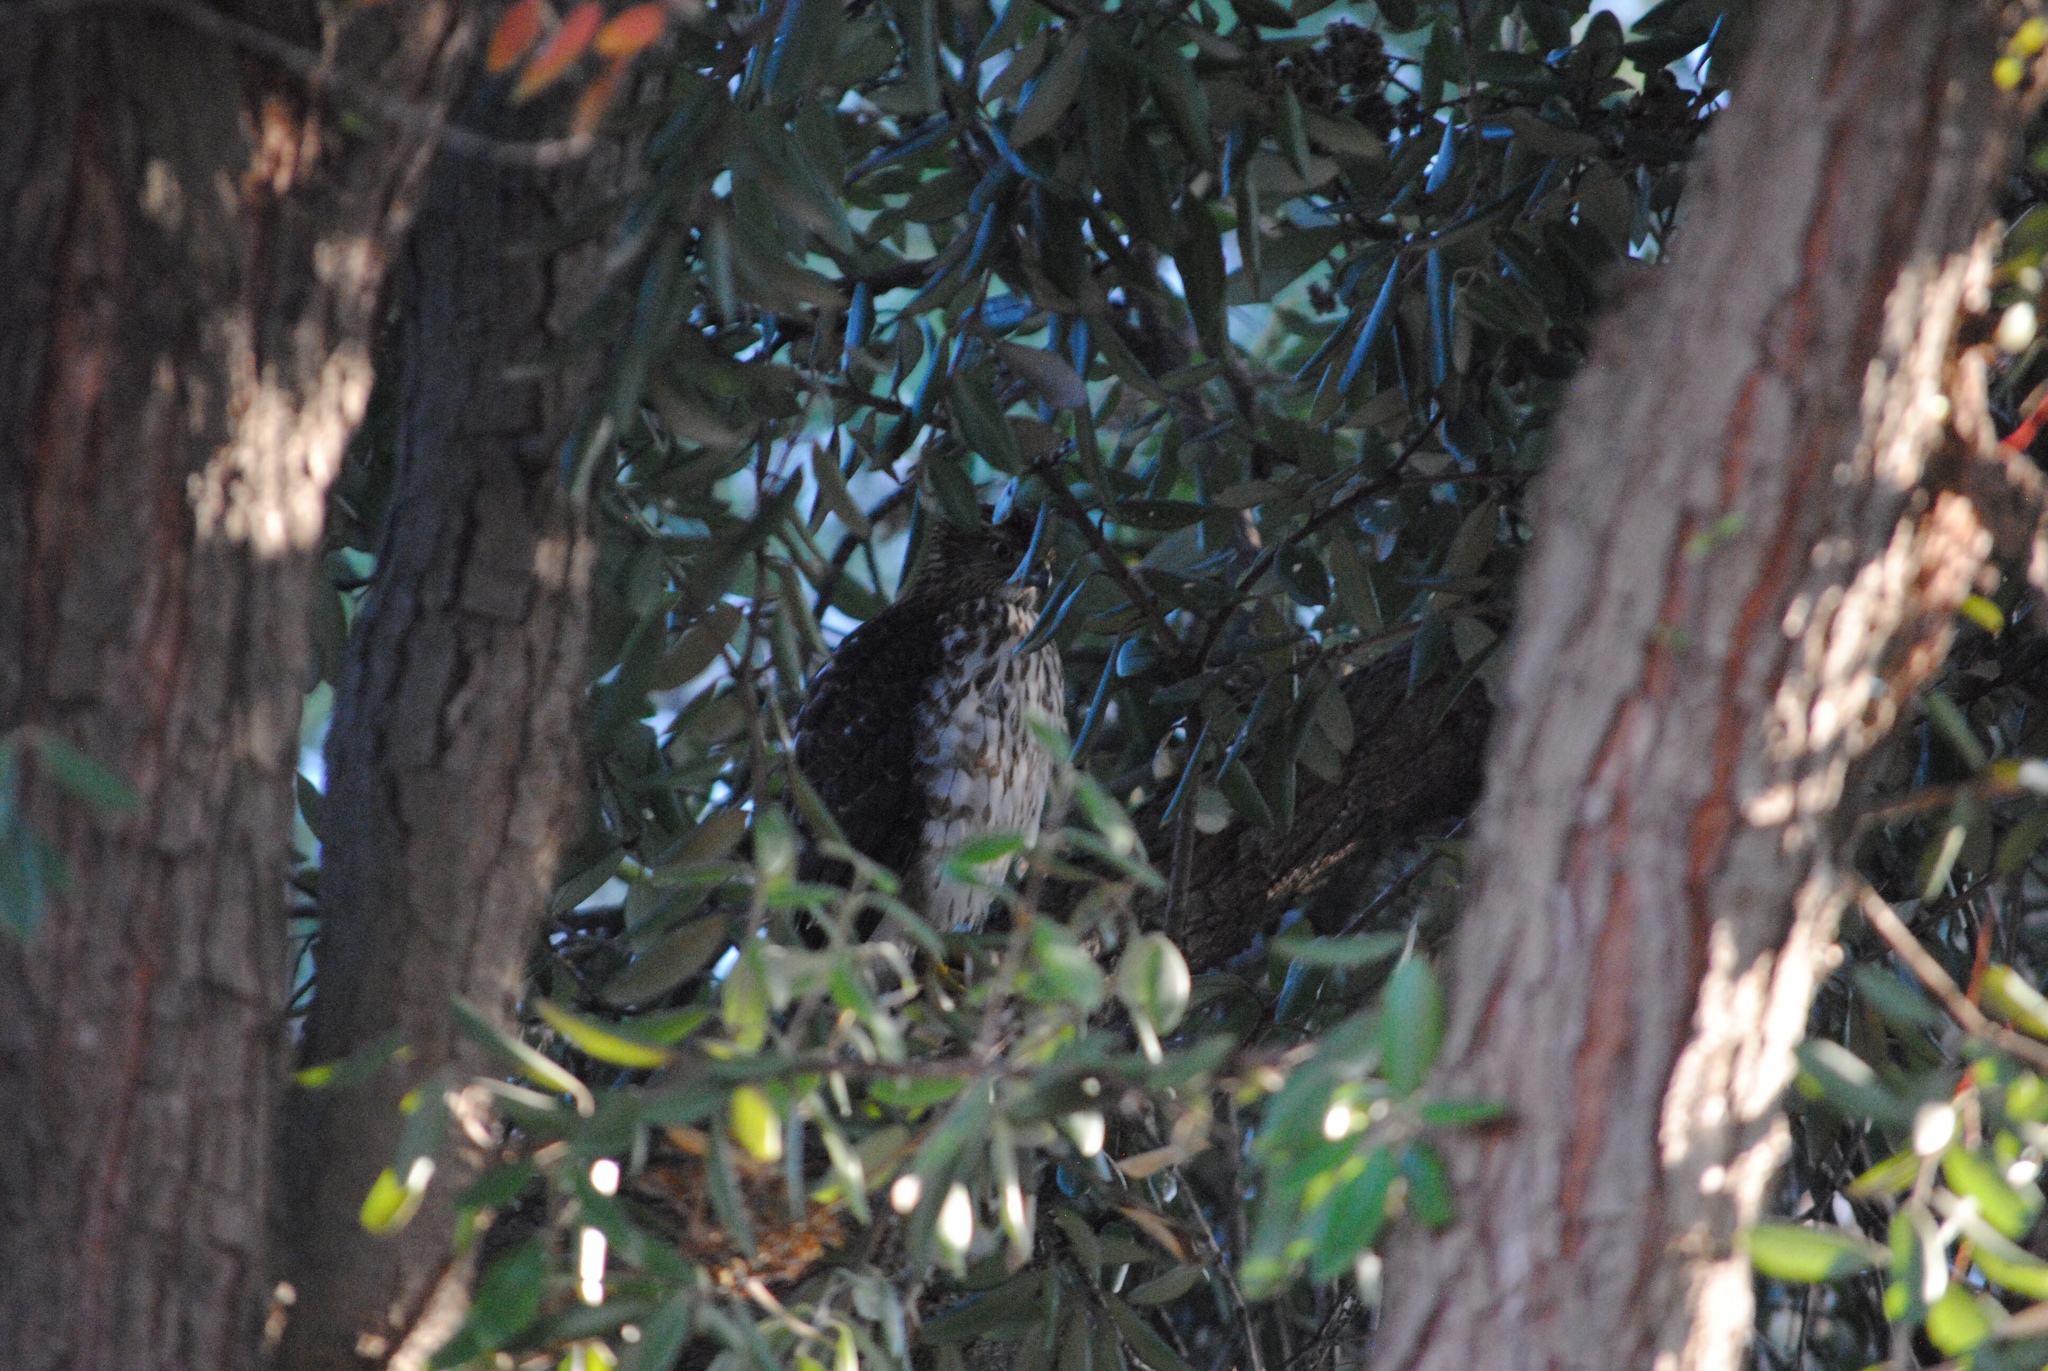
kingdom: Animalia
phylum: Chordata
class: Aves
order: Accipitriformes
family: Accipitridae
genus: Accipiter
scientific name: Accipiter cooperii
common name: Cooper's hawk
